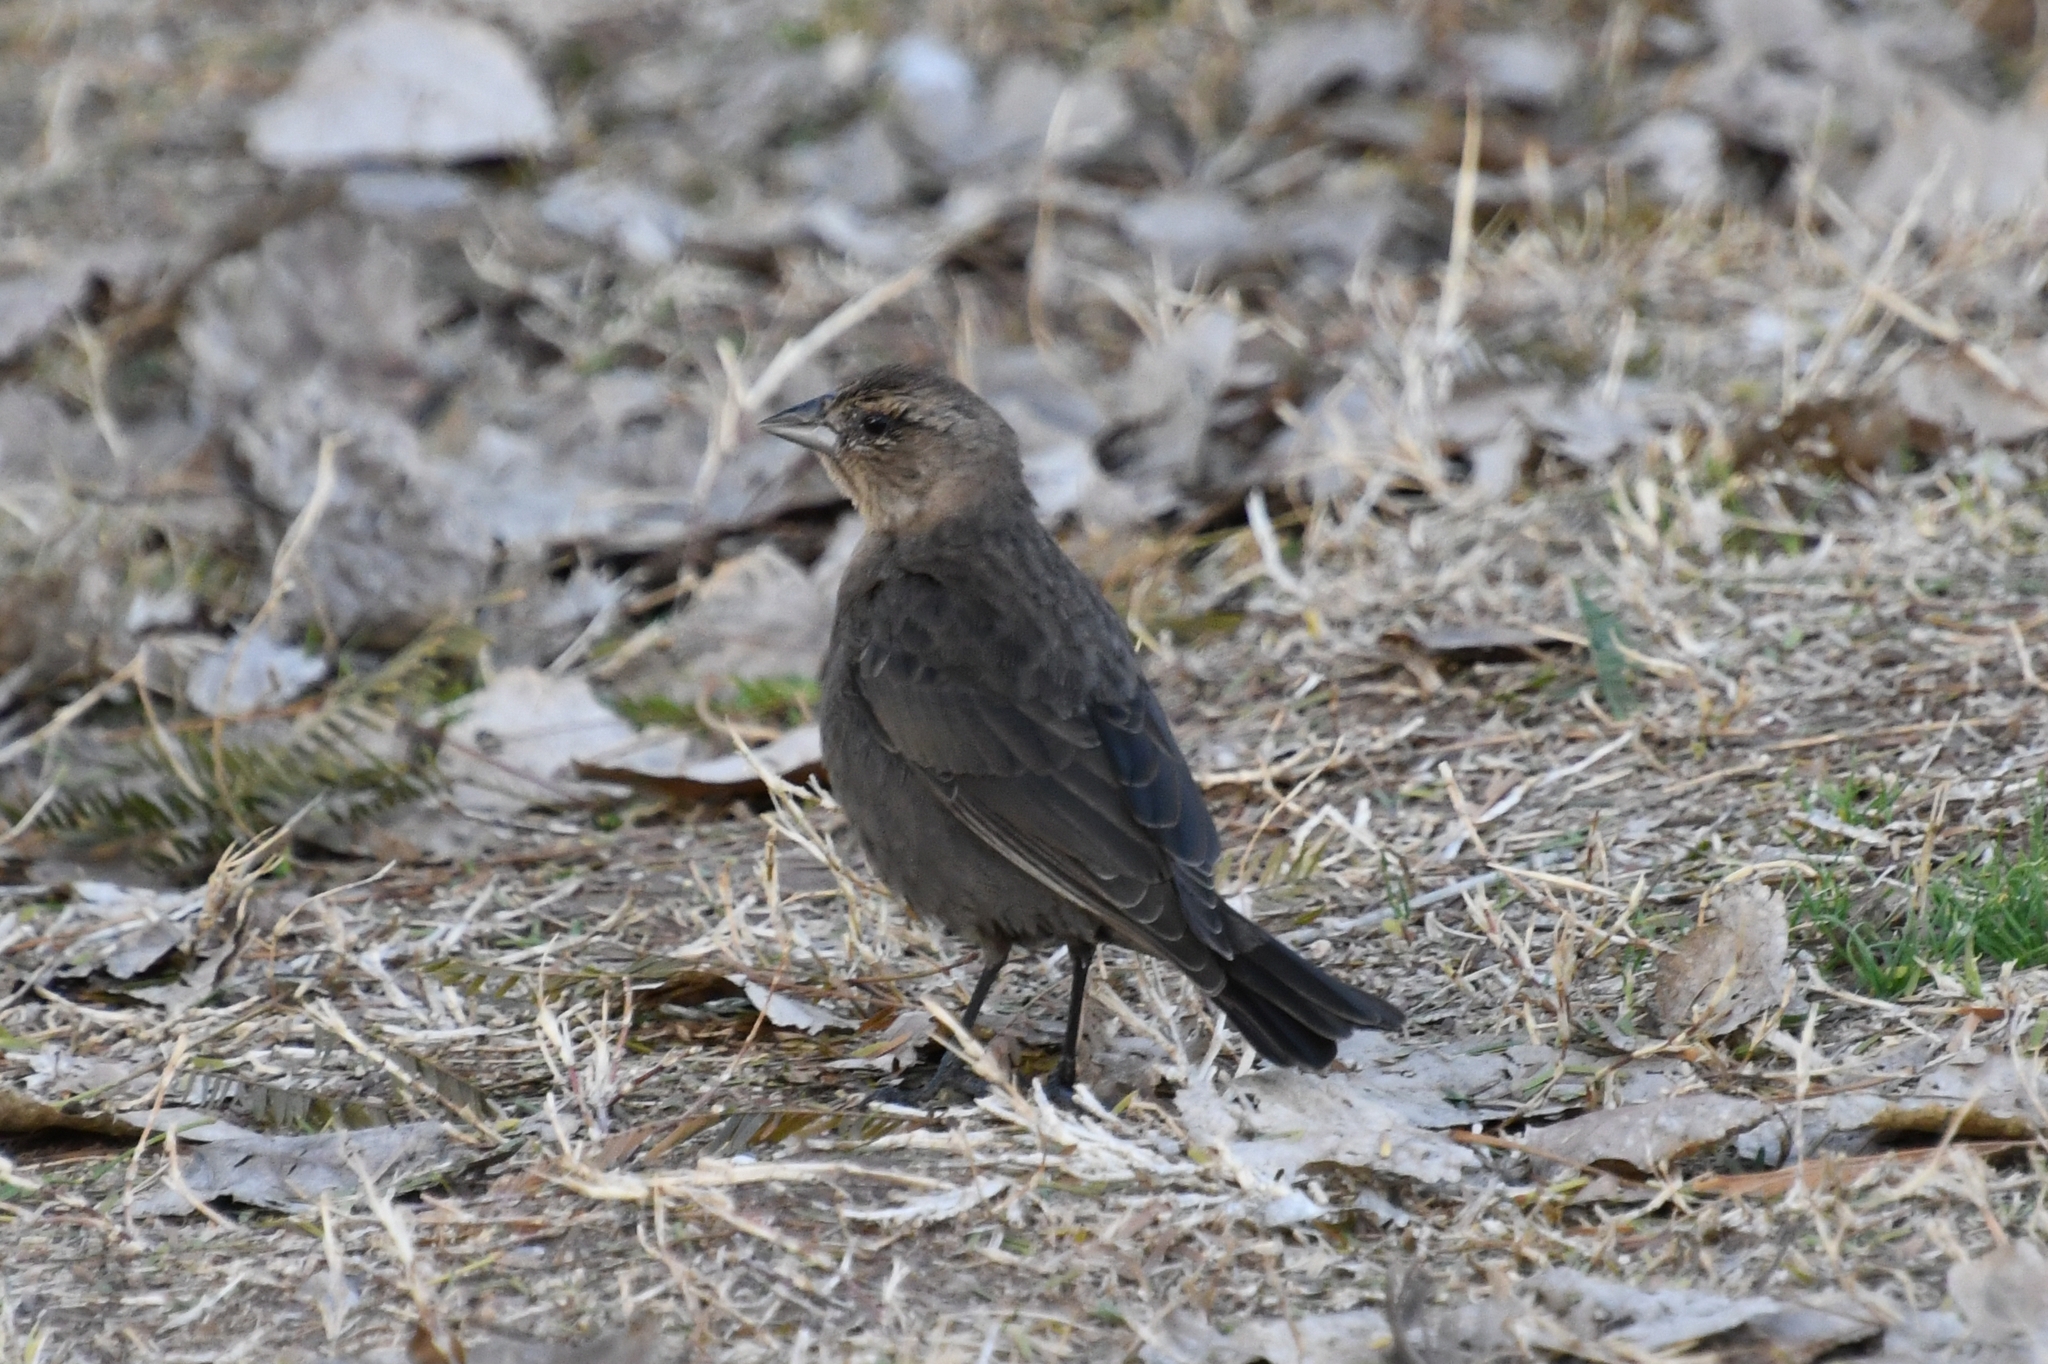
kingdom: Animalia
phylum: Chordata
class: Aves
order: Passeriformes
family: Icteridae
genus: Molothrus
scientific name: Molothrus ater
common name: Brown-headed cowbird
